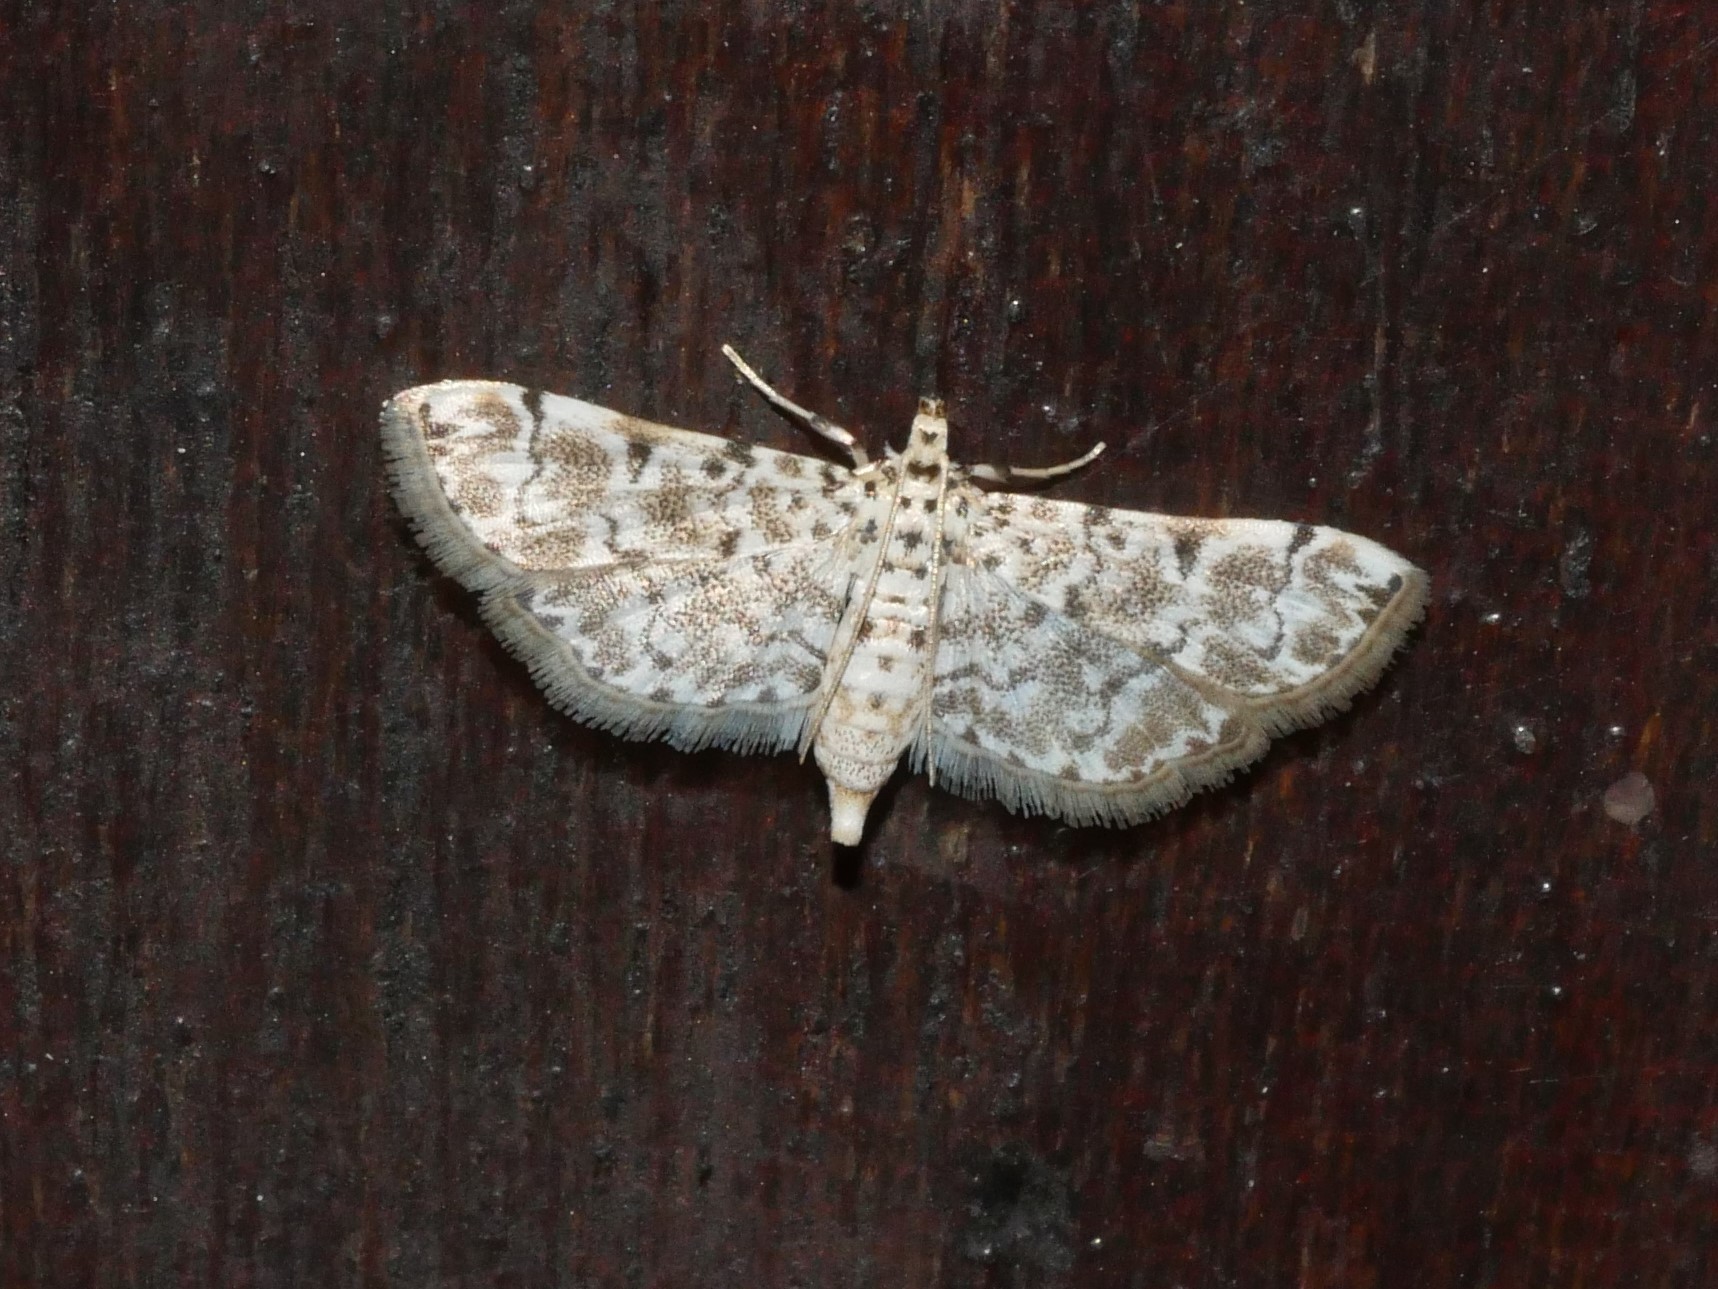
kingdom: Animalia
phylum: Arthropoda
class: Insecta
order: Lepidoptera
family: Crambidae
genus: Metoeca
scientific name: Metoeca foedalis
